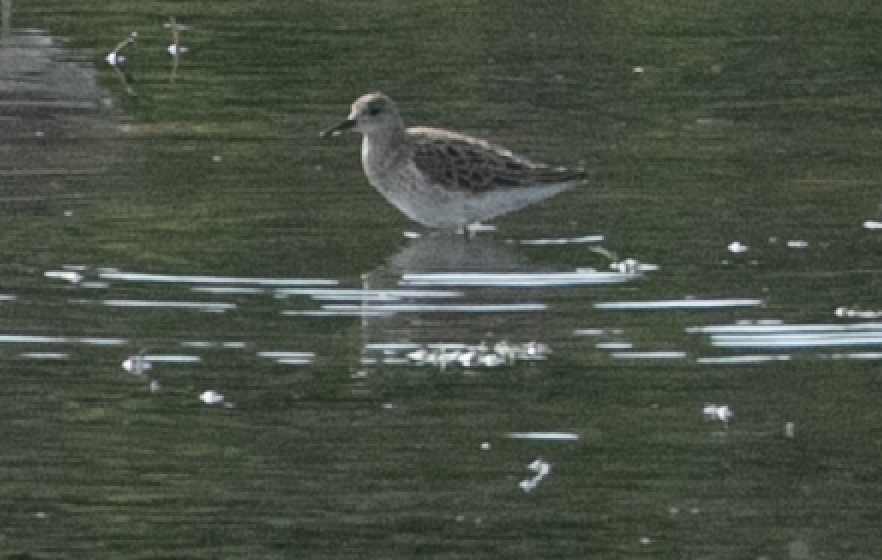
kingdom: Animalia
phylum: Chordata
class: Aves
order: Charadriiformes
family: Scolopacidae
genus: Calidris
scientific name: Calidris pugnax
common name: Ruff
